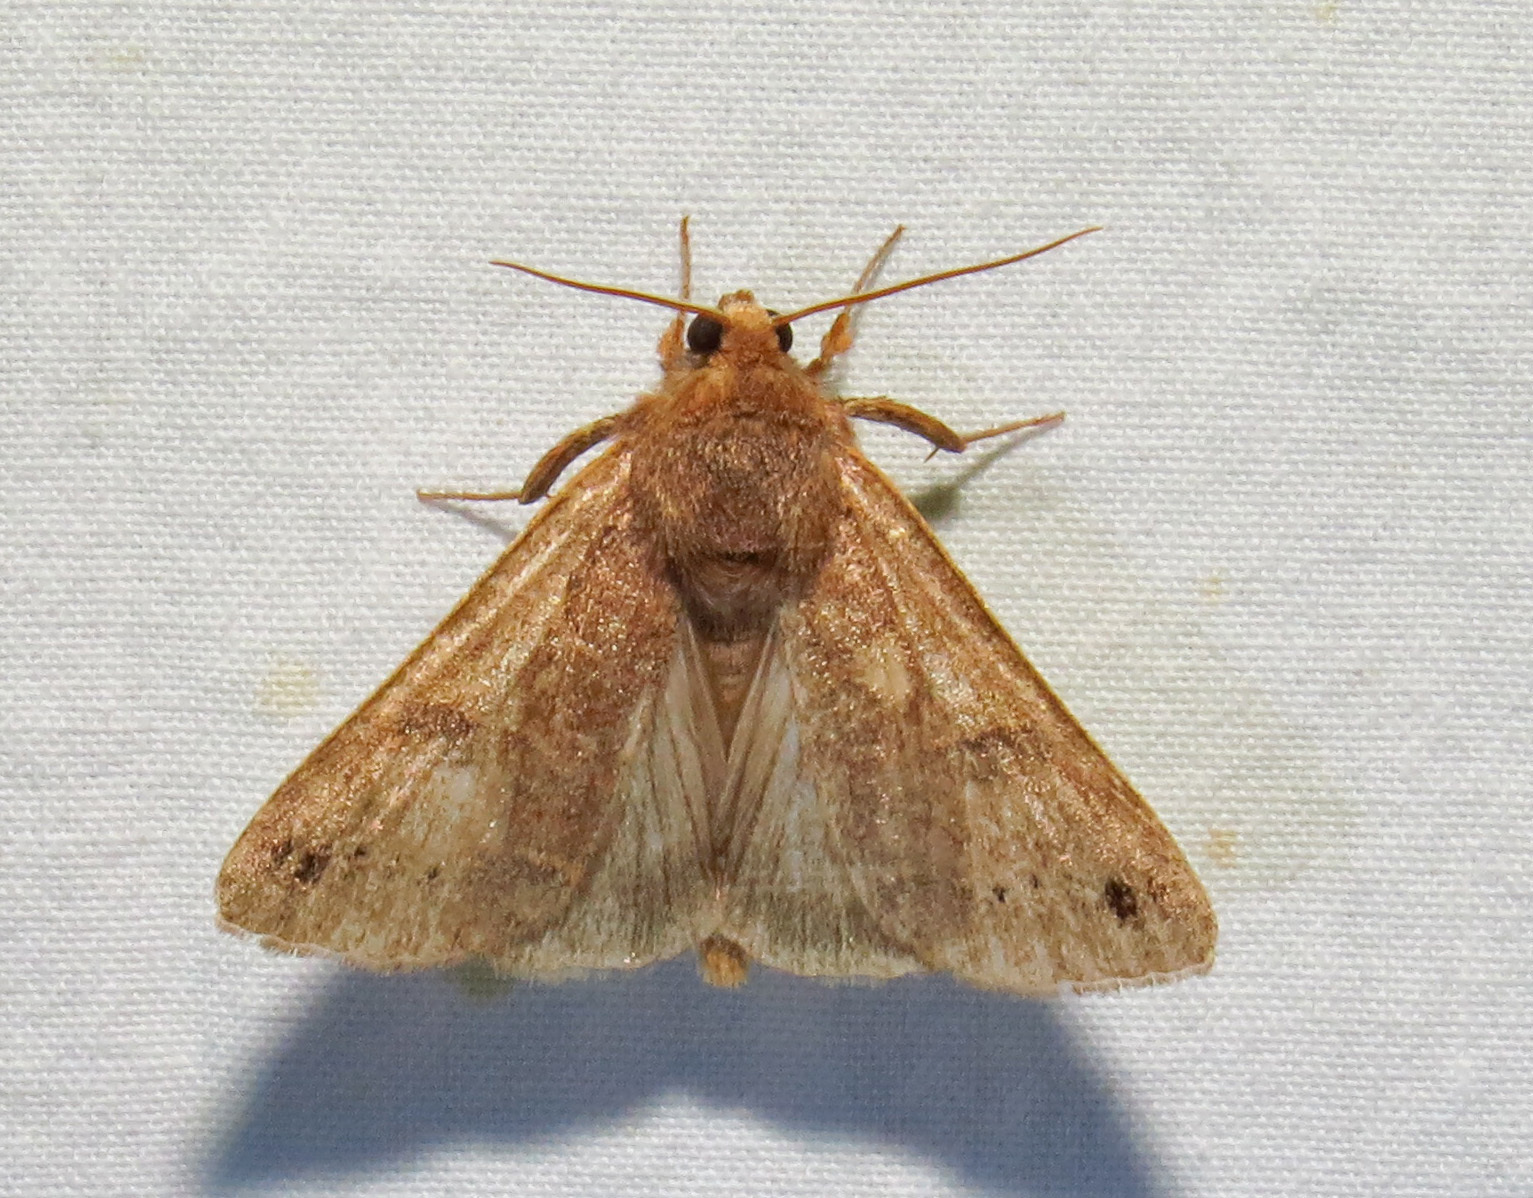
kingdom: Animalia
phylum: Arthropoda
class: Insecta
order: Lepidoptera
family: Erebidae
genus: Cissusa
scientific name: Cissusa spadix
